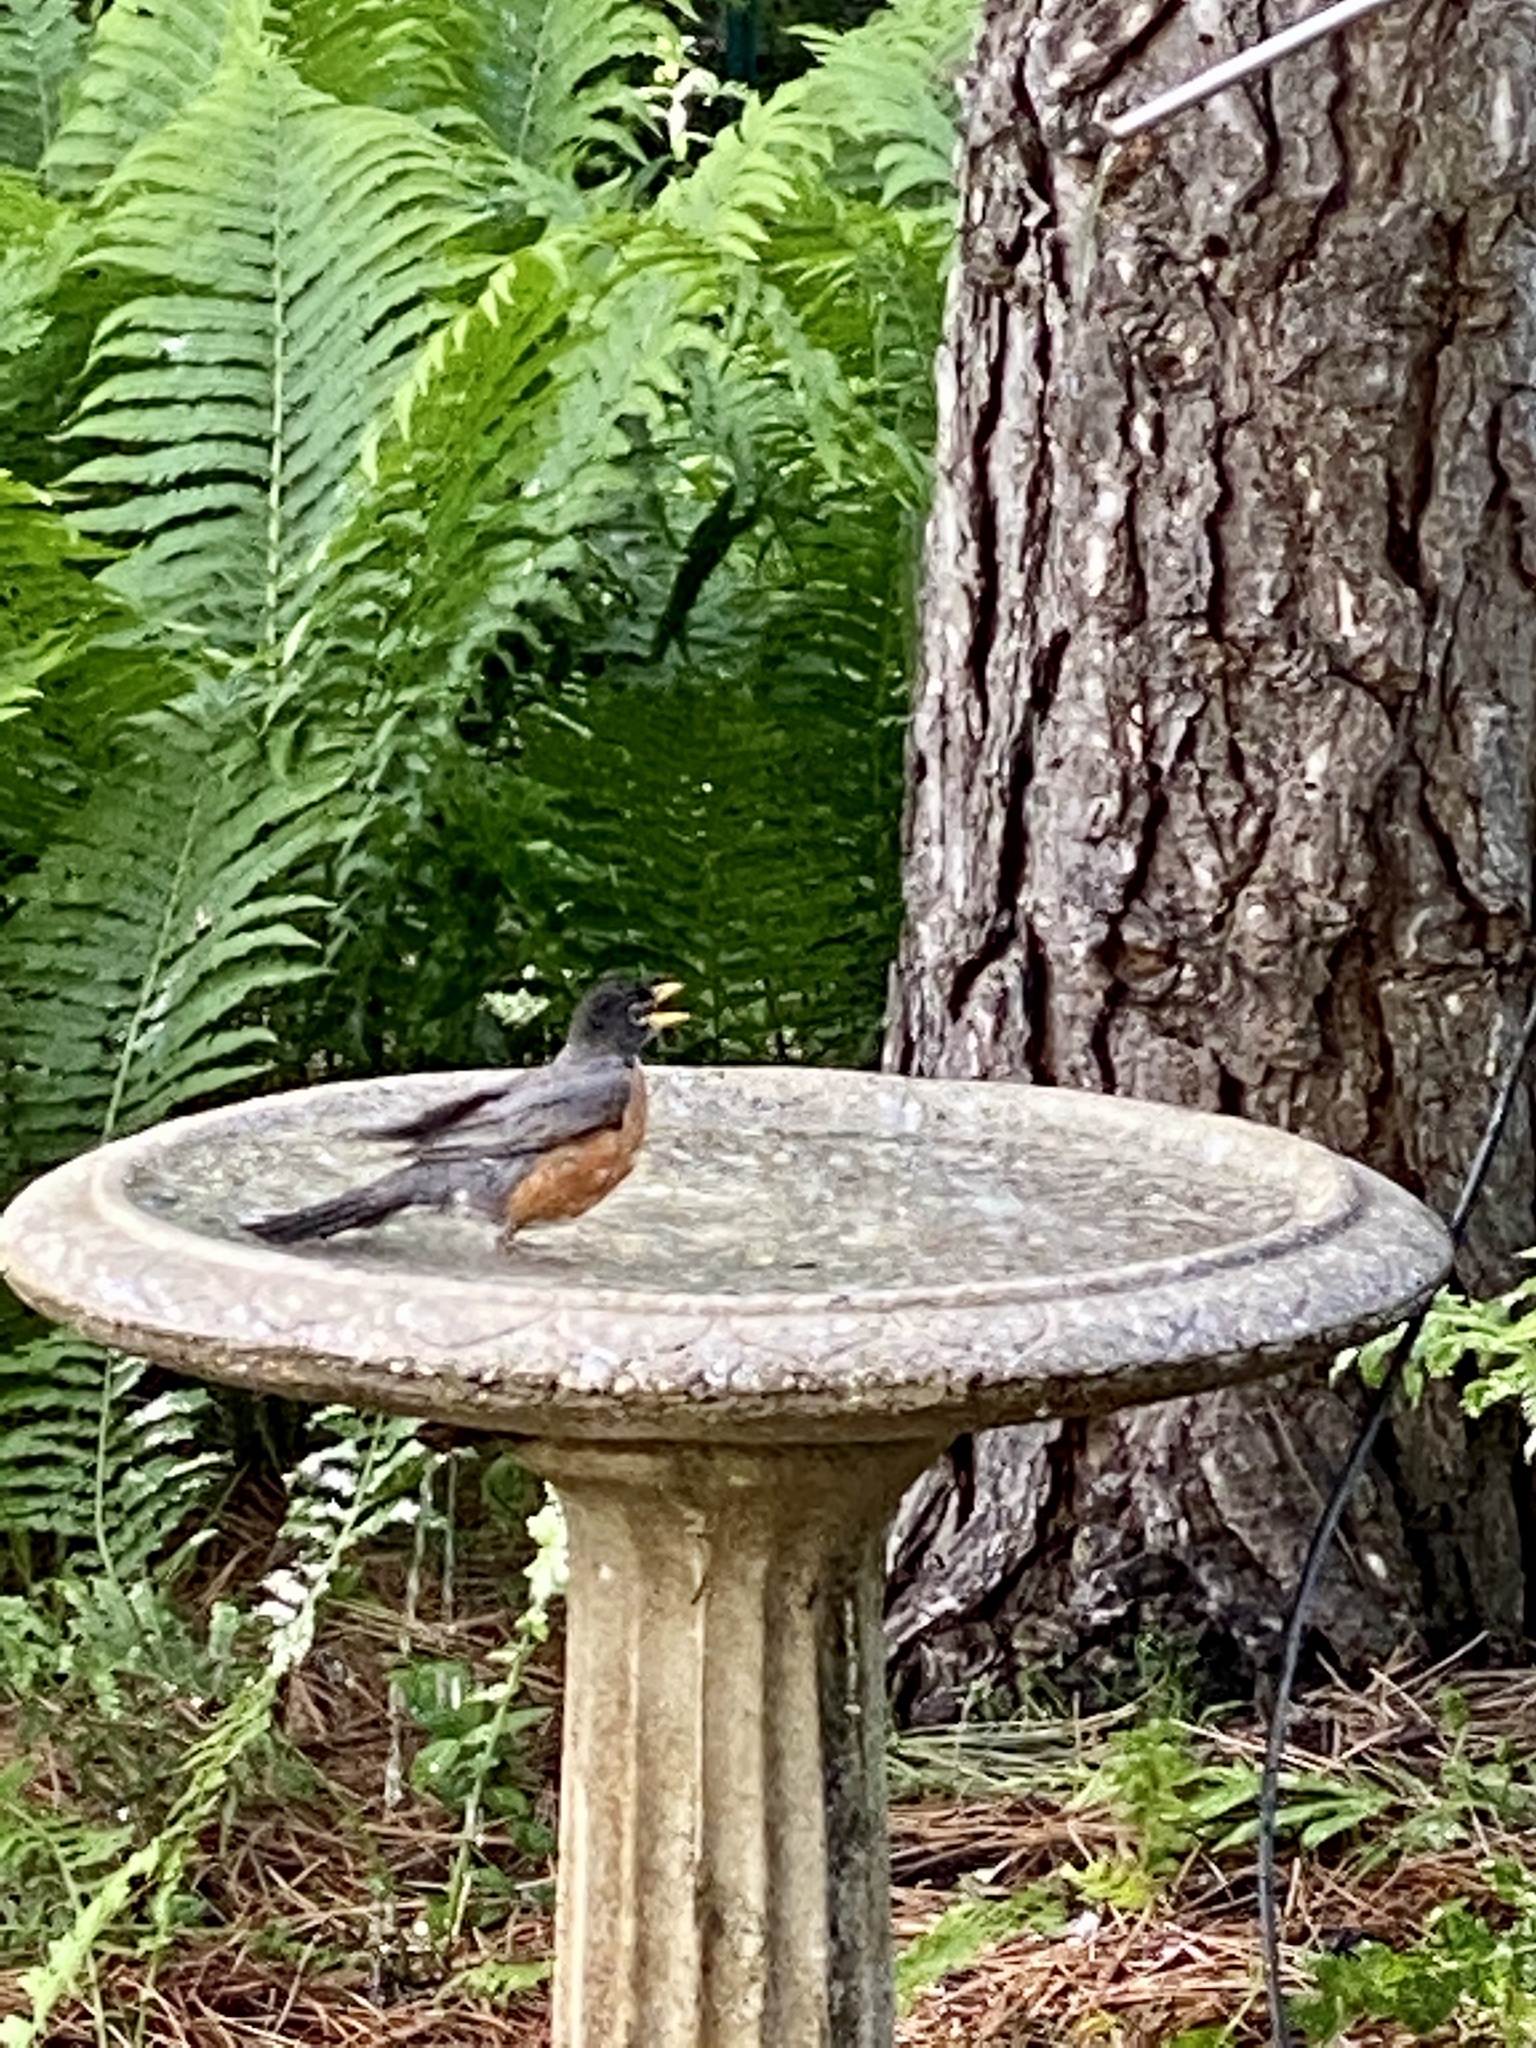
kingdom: Animalia
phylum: Chordata
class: Aves
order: Passeriformes
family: Turdidae
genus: Turdus
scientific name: Turdus migratorius
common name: American robin
